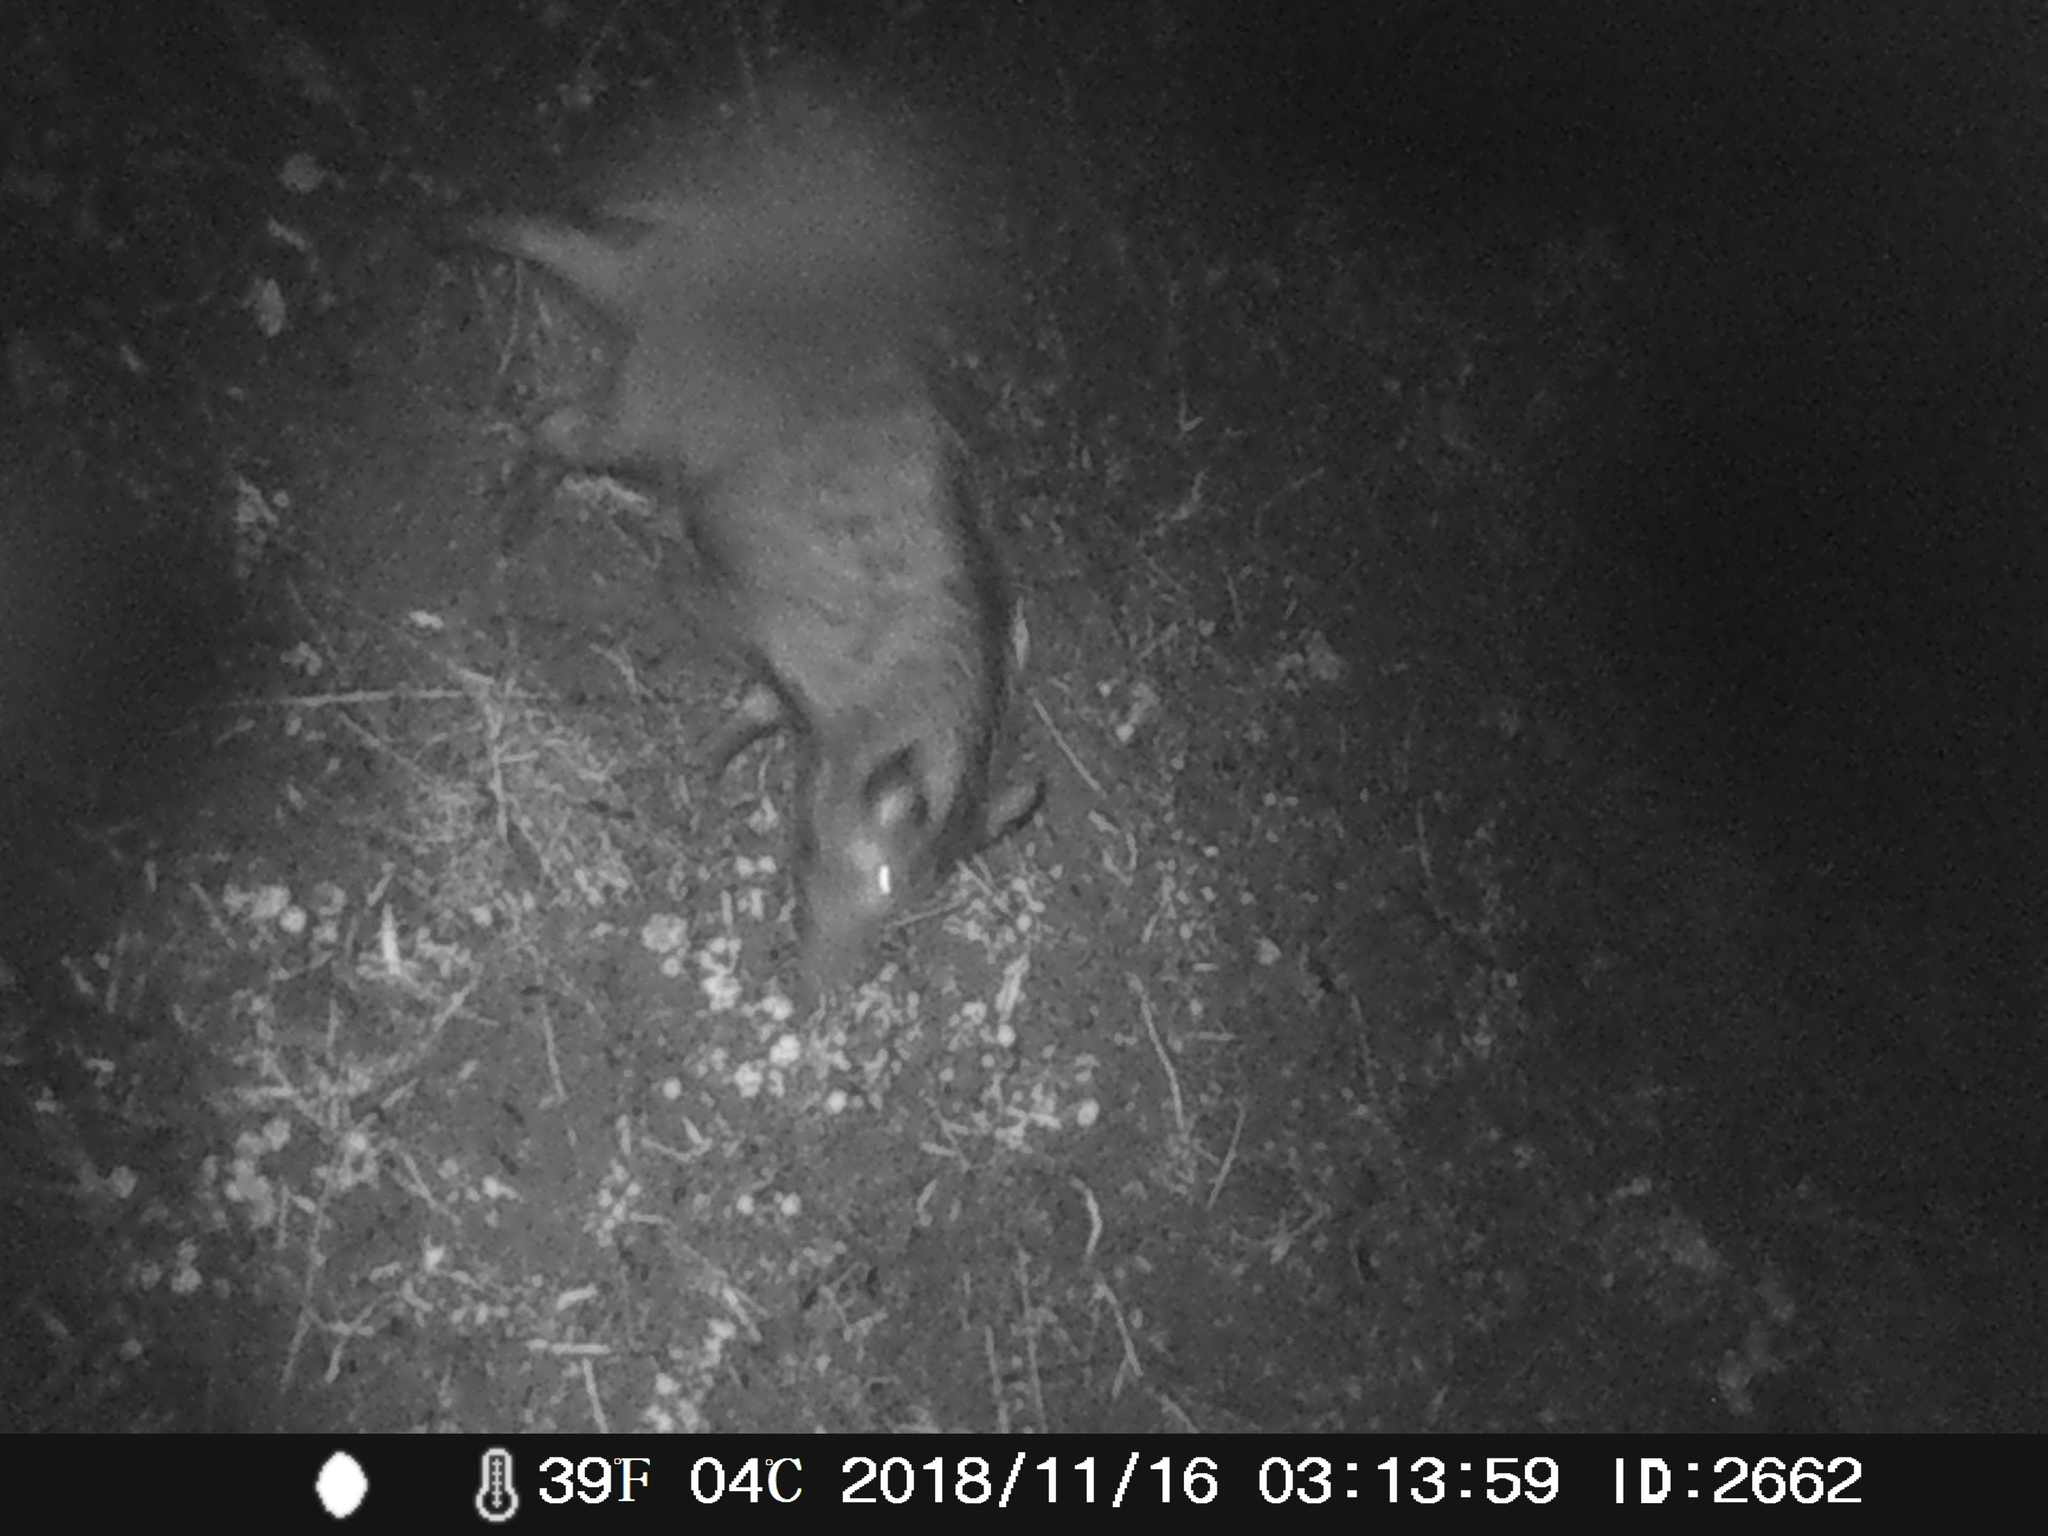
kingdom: Animalia
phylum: Chordata
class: Mammalia
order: Artiodactyla
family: Suidae
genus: Sus
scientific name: Sus scrofa
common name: Wild boar
